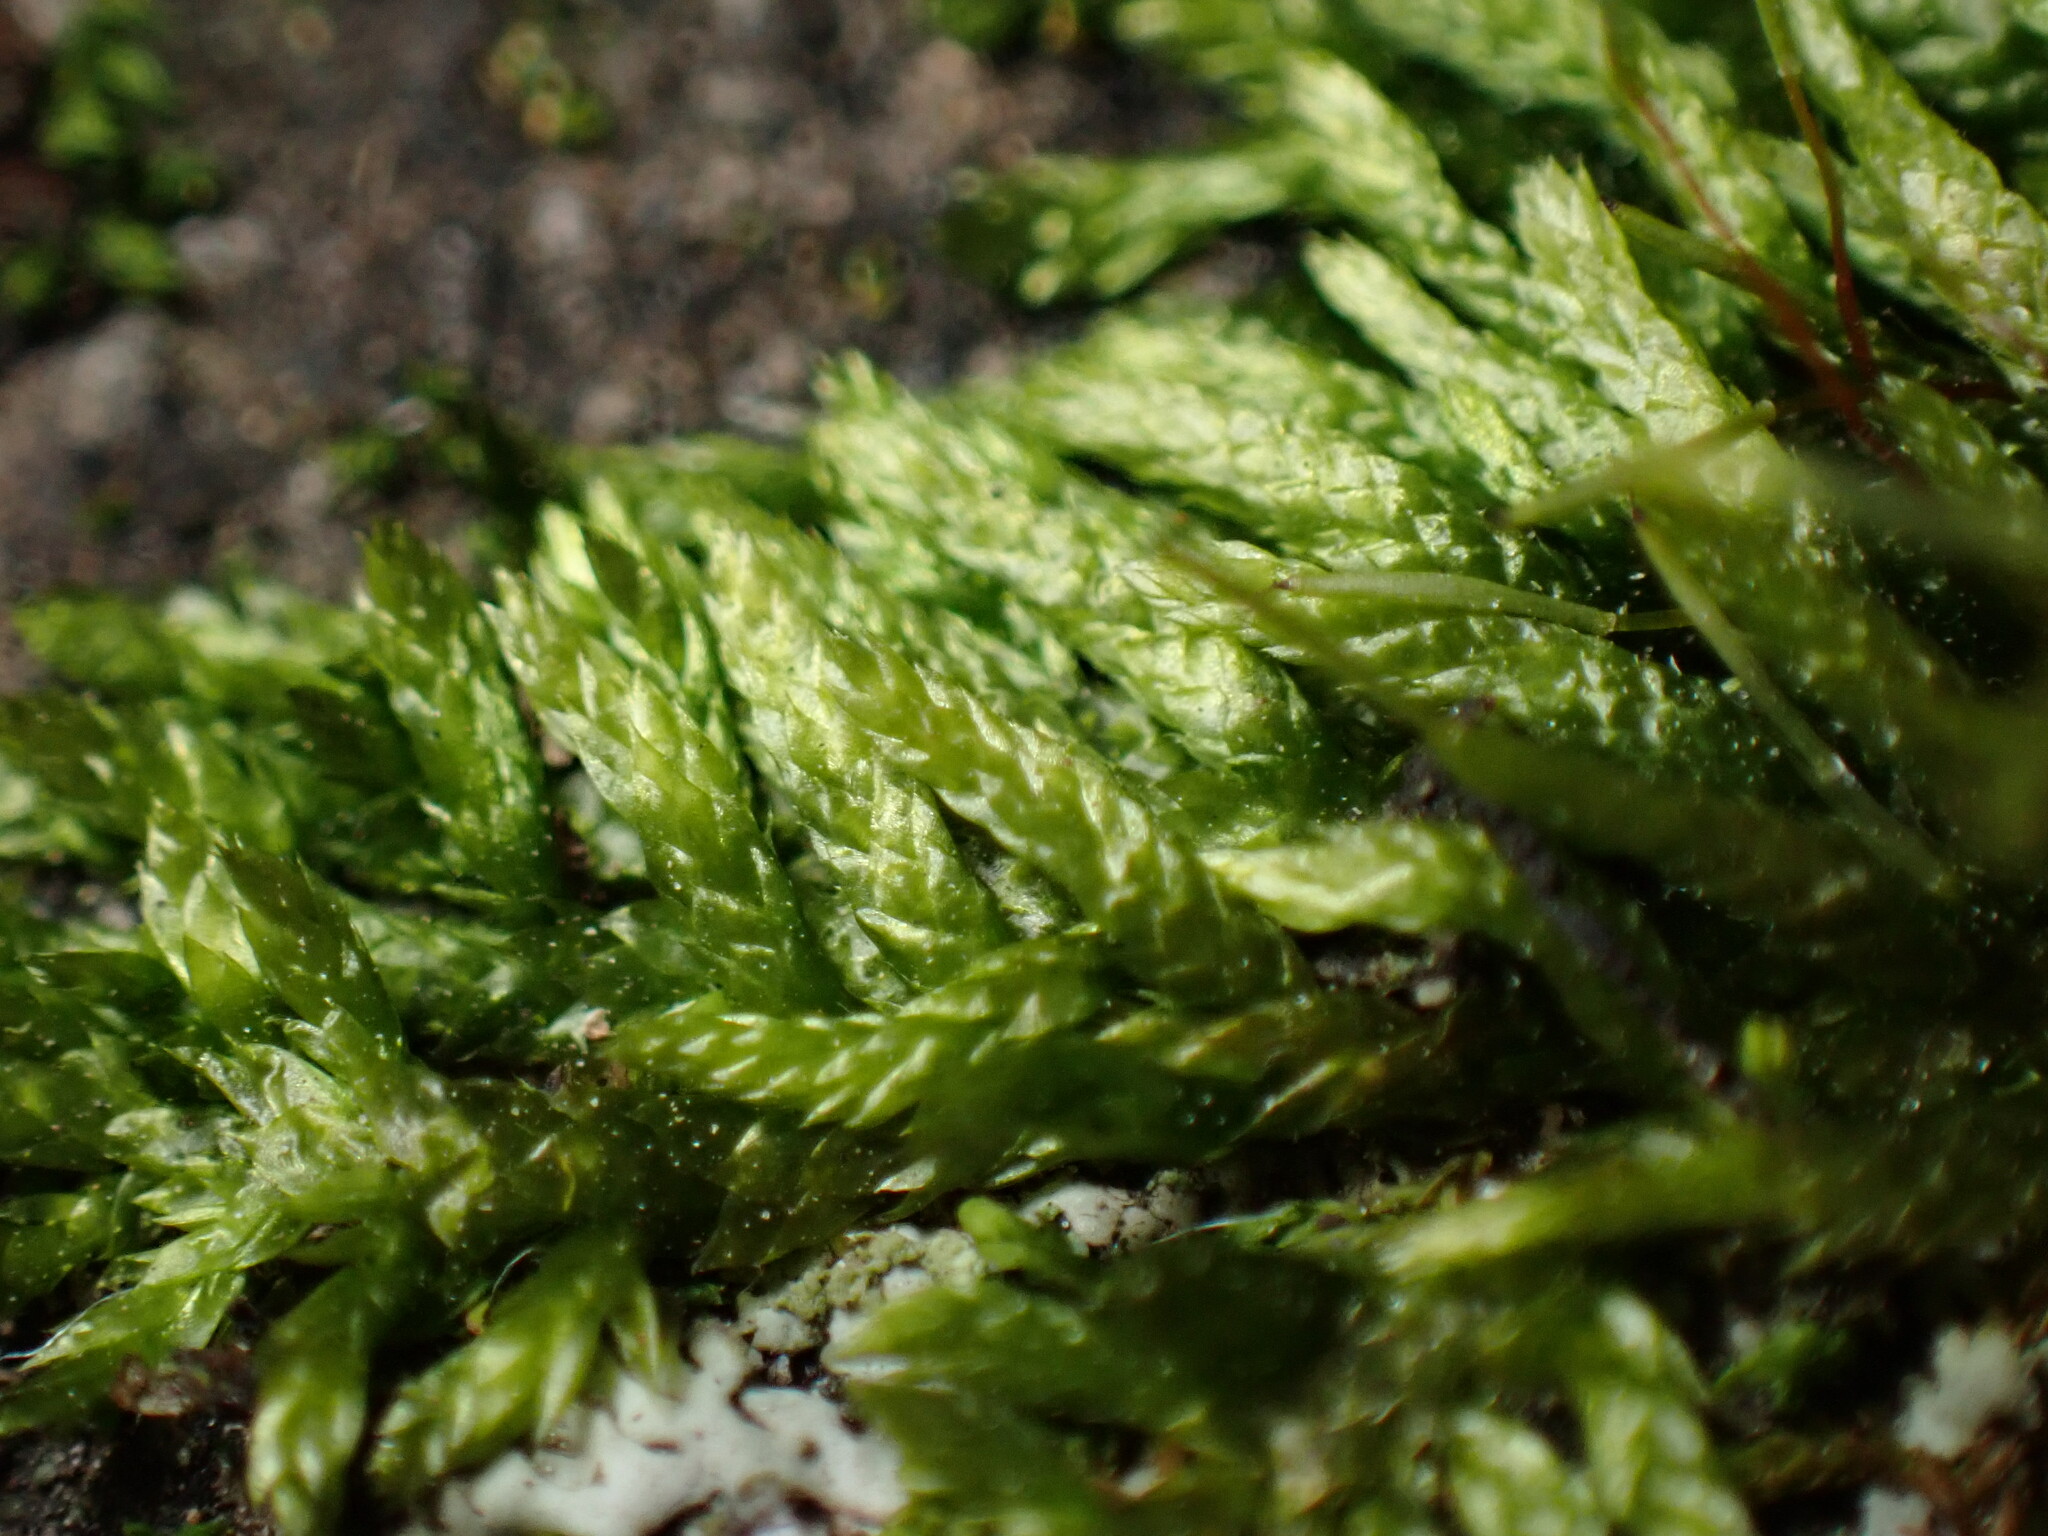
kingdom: Plantae
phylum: Bryophyta
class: Bryopsida
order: Hypnales
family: Entodontaceae
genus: Entodon
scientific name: Entodon cladorrhizans
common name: Flat-stemmed entodon moss
